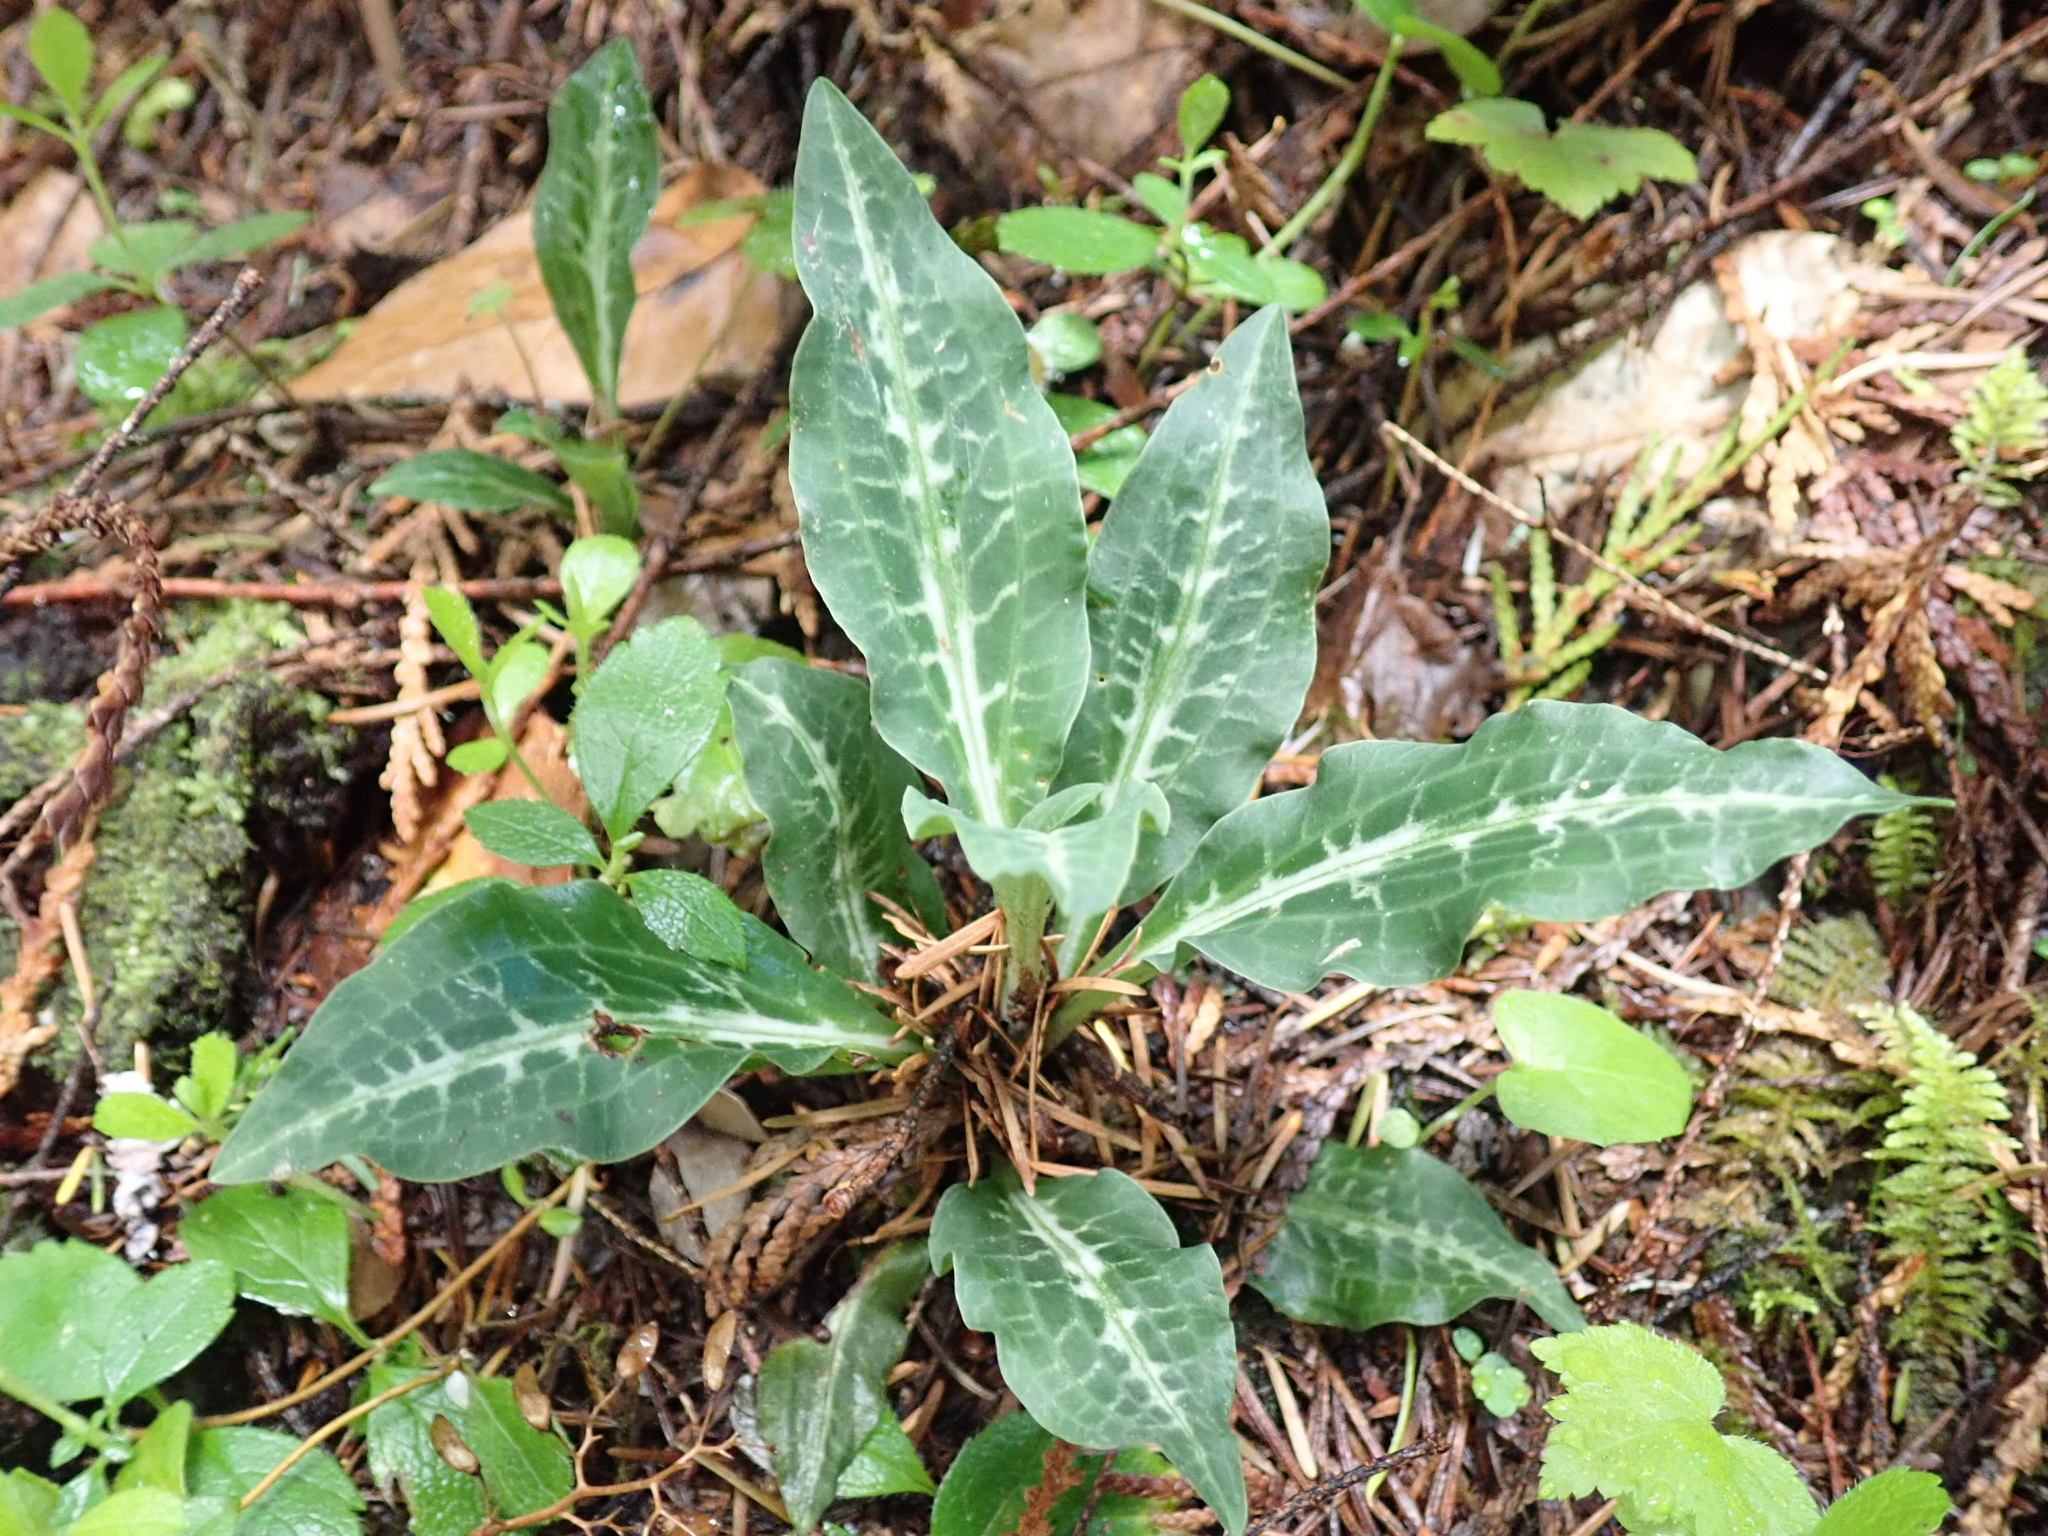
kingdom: Plantae
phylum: Tracheophyta
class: Liliopsida
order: Asparagales
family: Orchidaceae
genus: Goodyera
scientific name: Goodyera oblongifolia
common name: Giant rattlesnake-plantain
